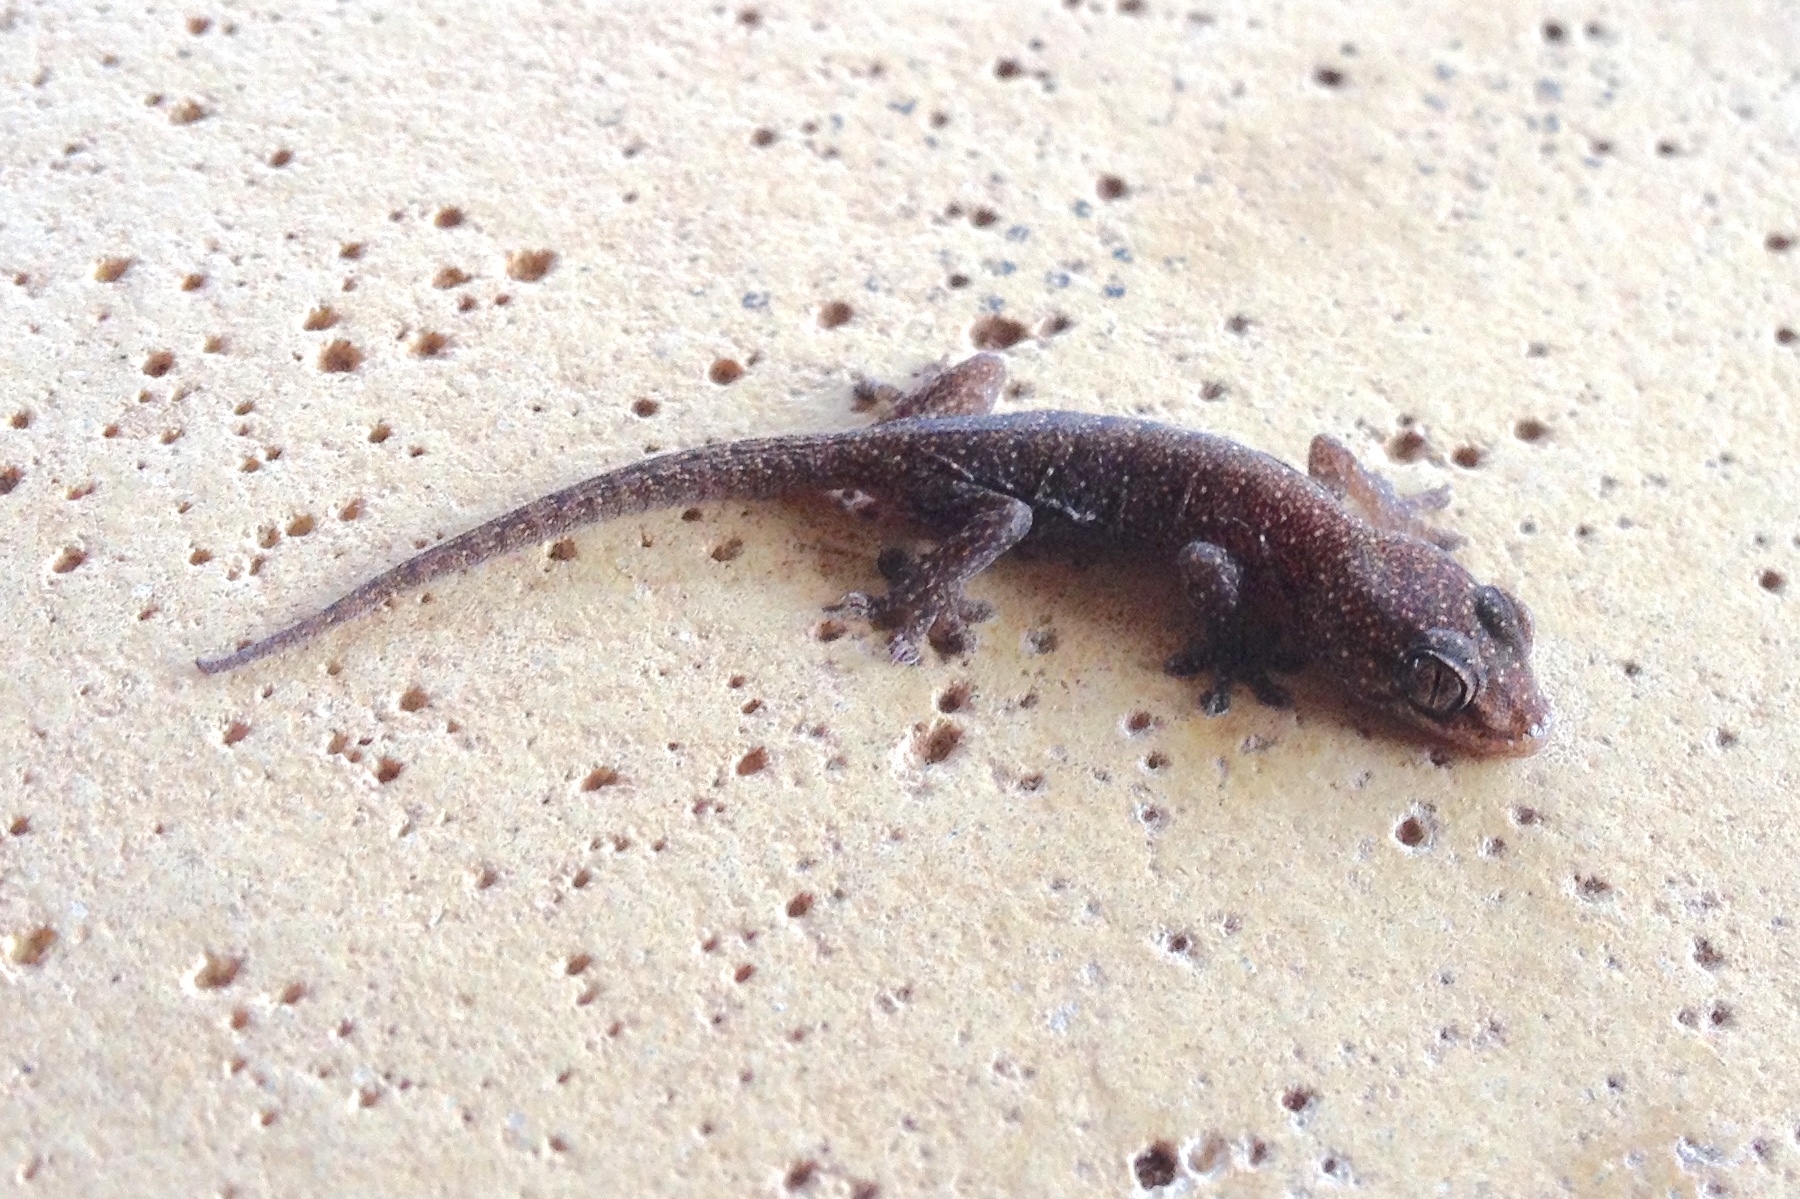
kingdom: Animalia
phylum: Chordata
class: Squamata
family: Gekkonidae
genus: Gehyra
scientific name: Gehyra lazelli
